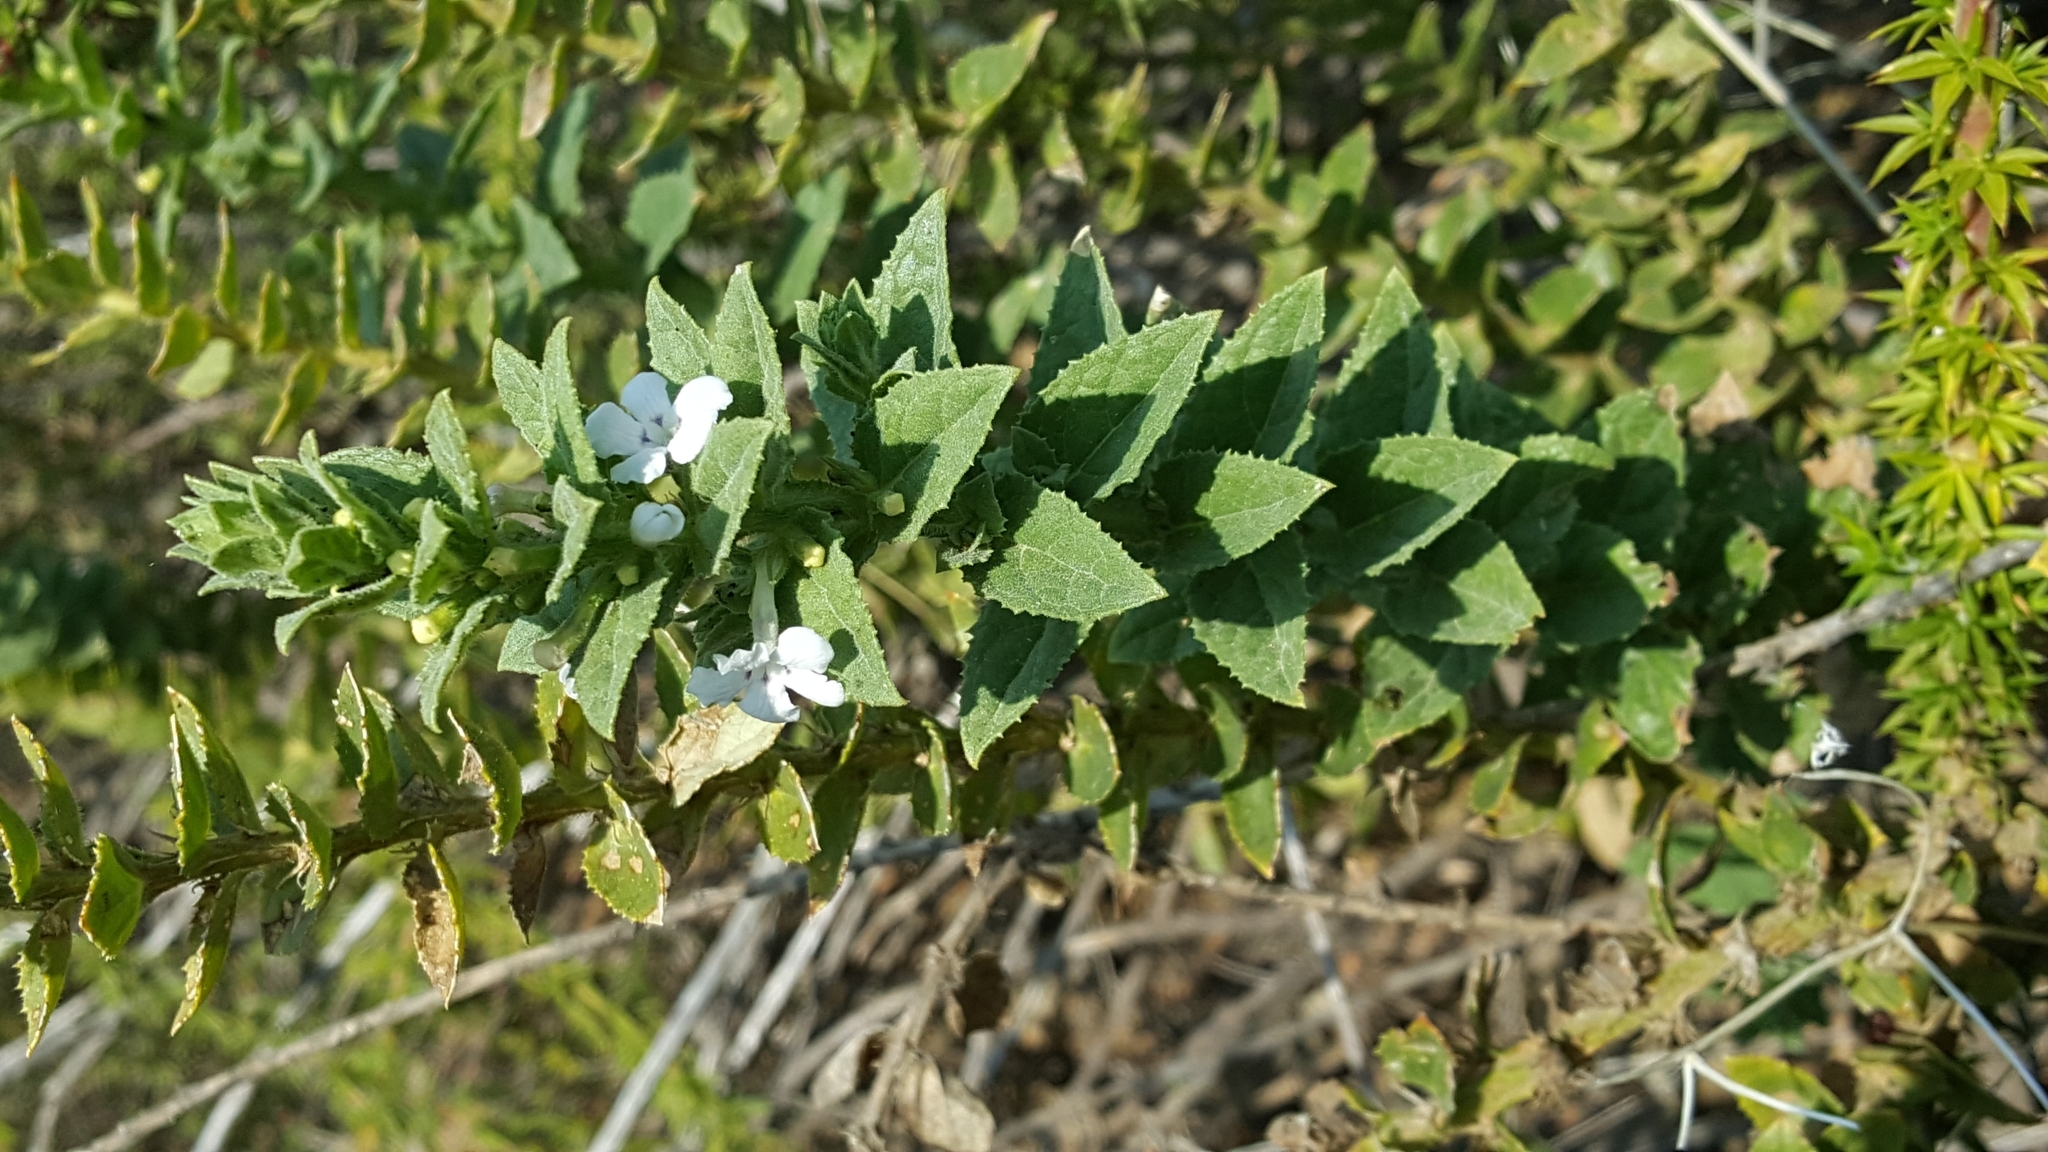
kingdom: Plantae
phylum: Tracheophyta
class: Magnoliopsida
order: Lamiales
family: Scrophulariaceae
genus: Oftia
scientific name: Oftia africana
